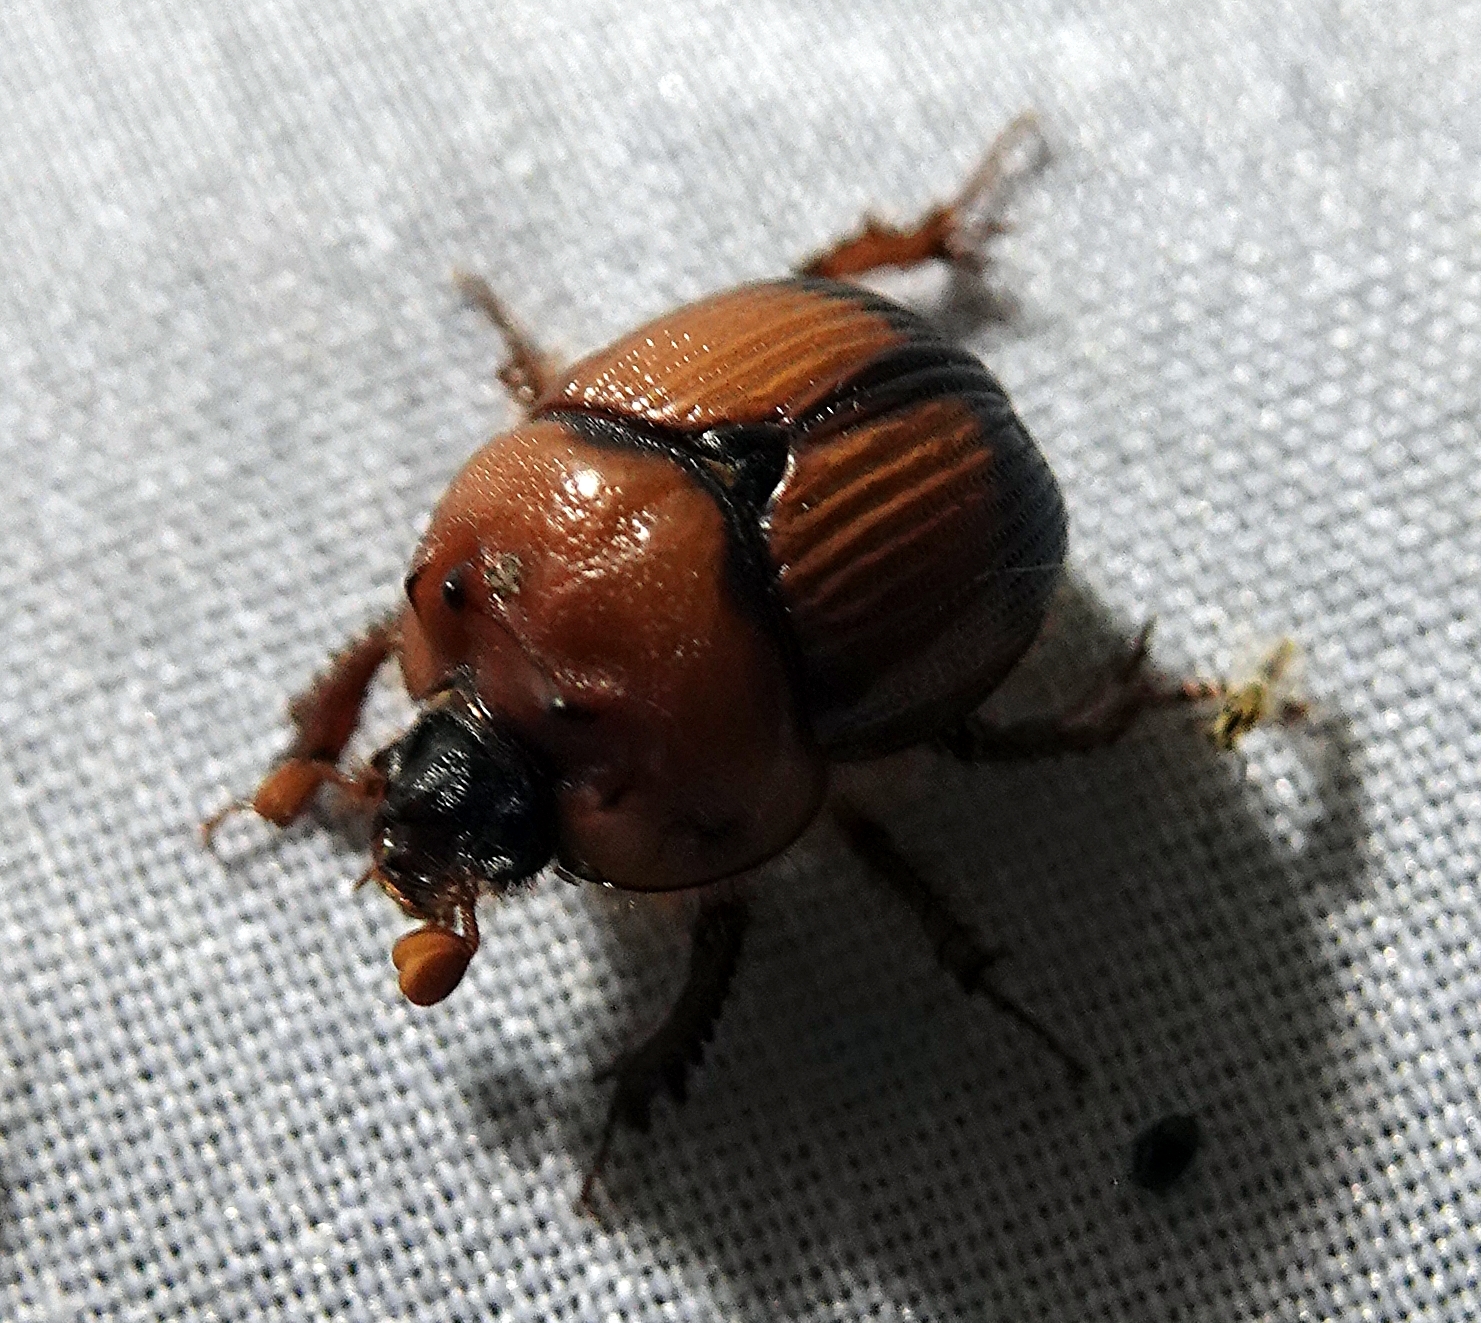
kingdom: Animalia
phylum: Arthropoda
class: Insecta
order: Coleoptera
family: Geotrupidae
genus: Bolbocerosoma
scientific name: Bolbocerosoma bruneri
